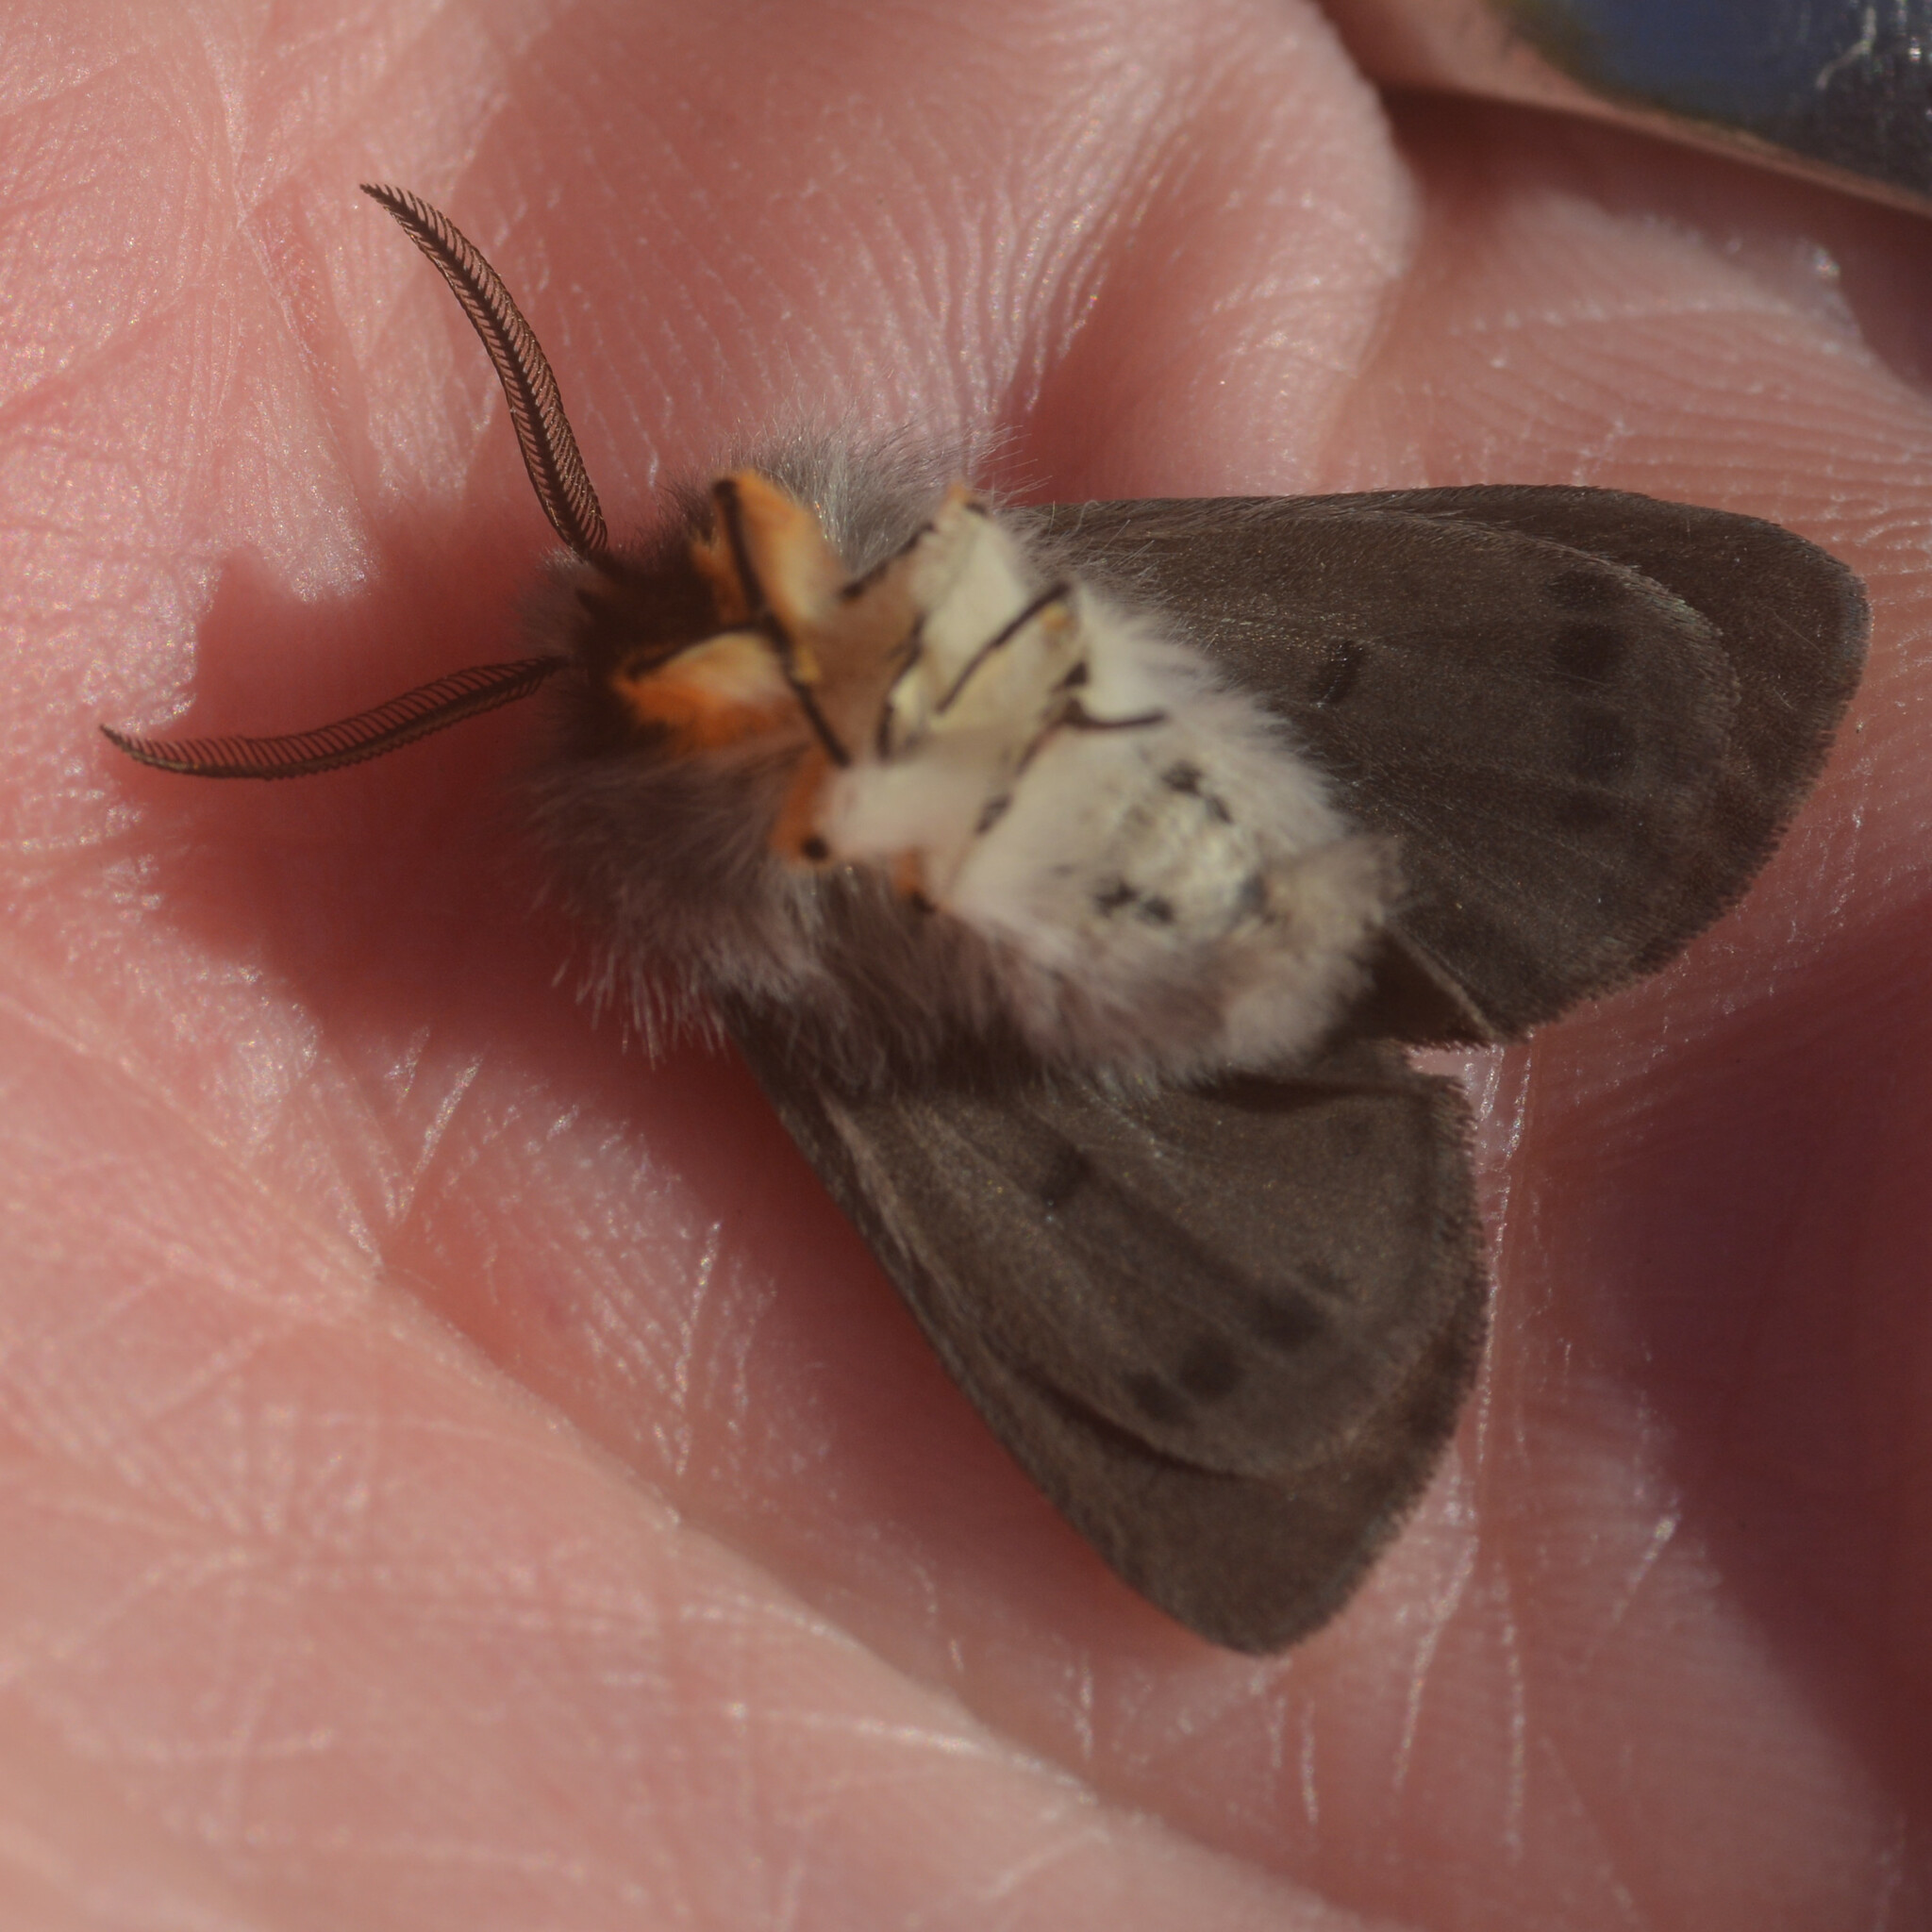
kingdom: Animalia
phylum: Arthropoda
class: Insecta
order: Lepidoptera
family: Erebidae
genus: Diaphora
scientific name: Diaphora mendica
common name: Muslin moth
